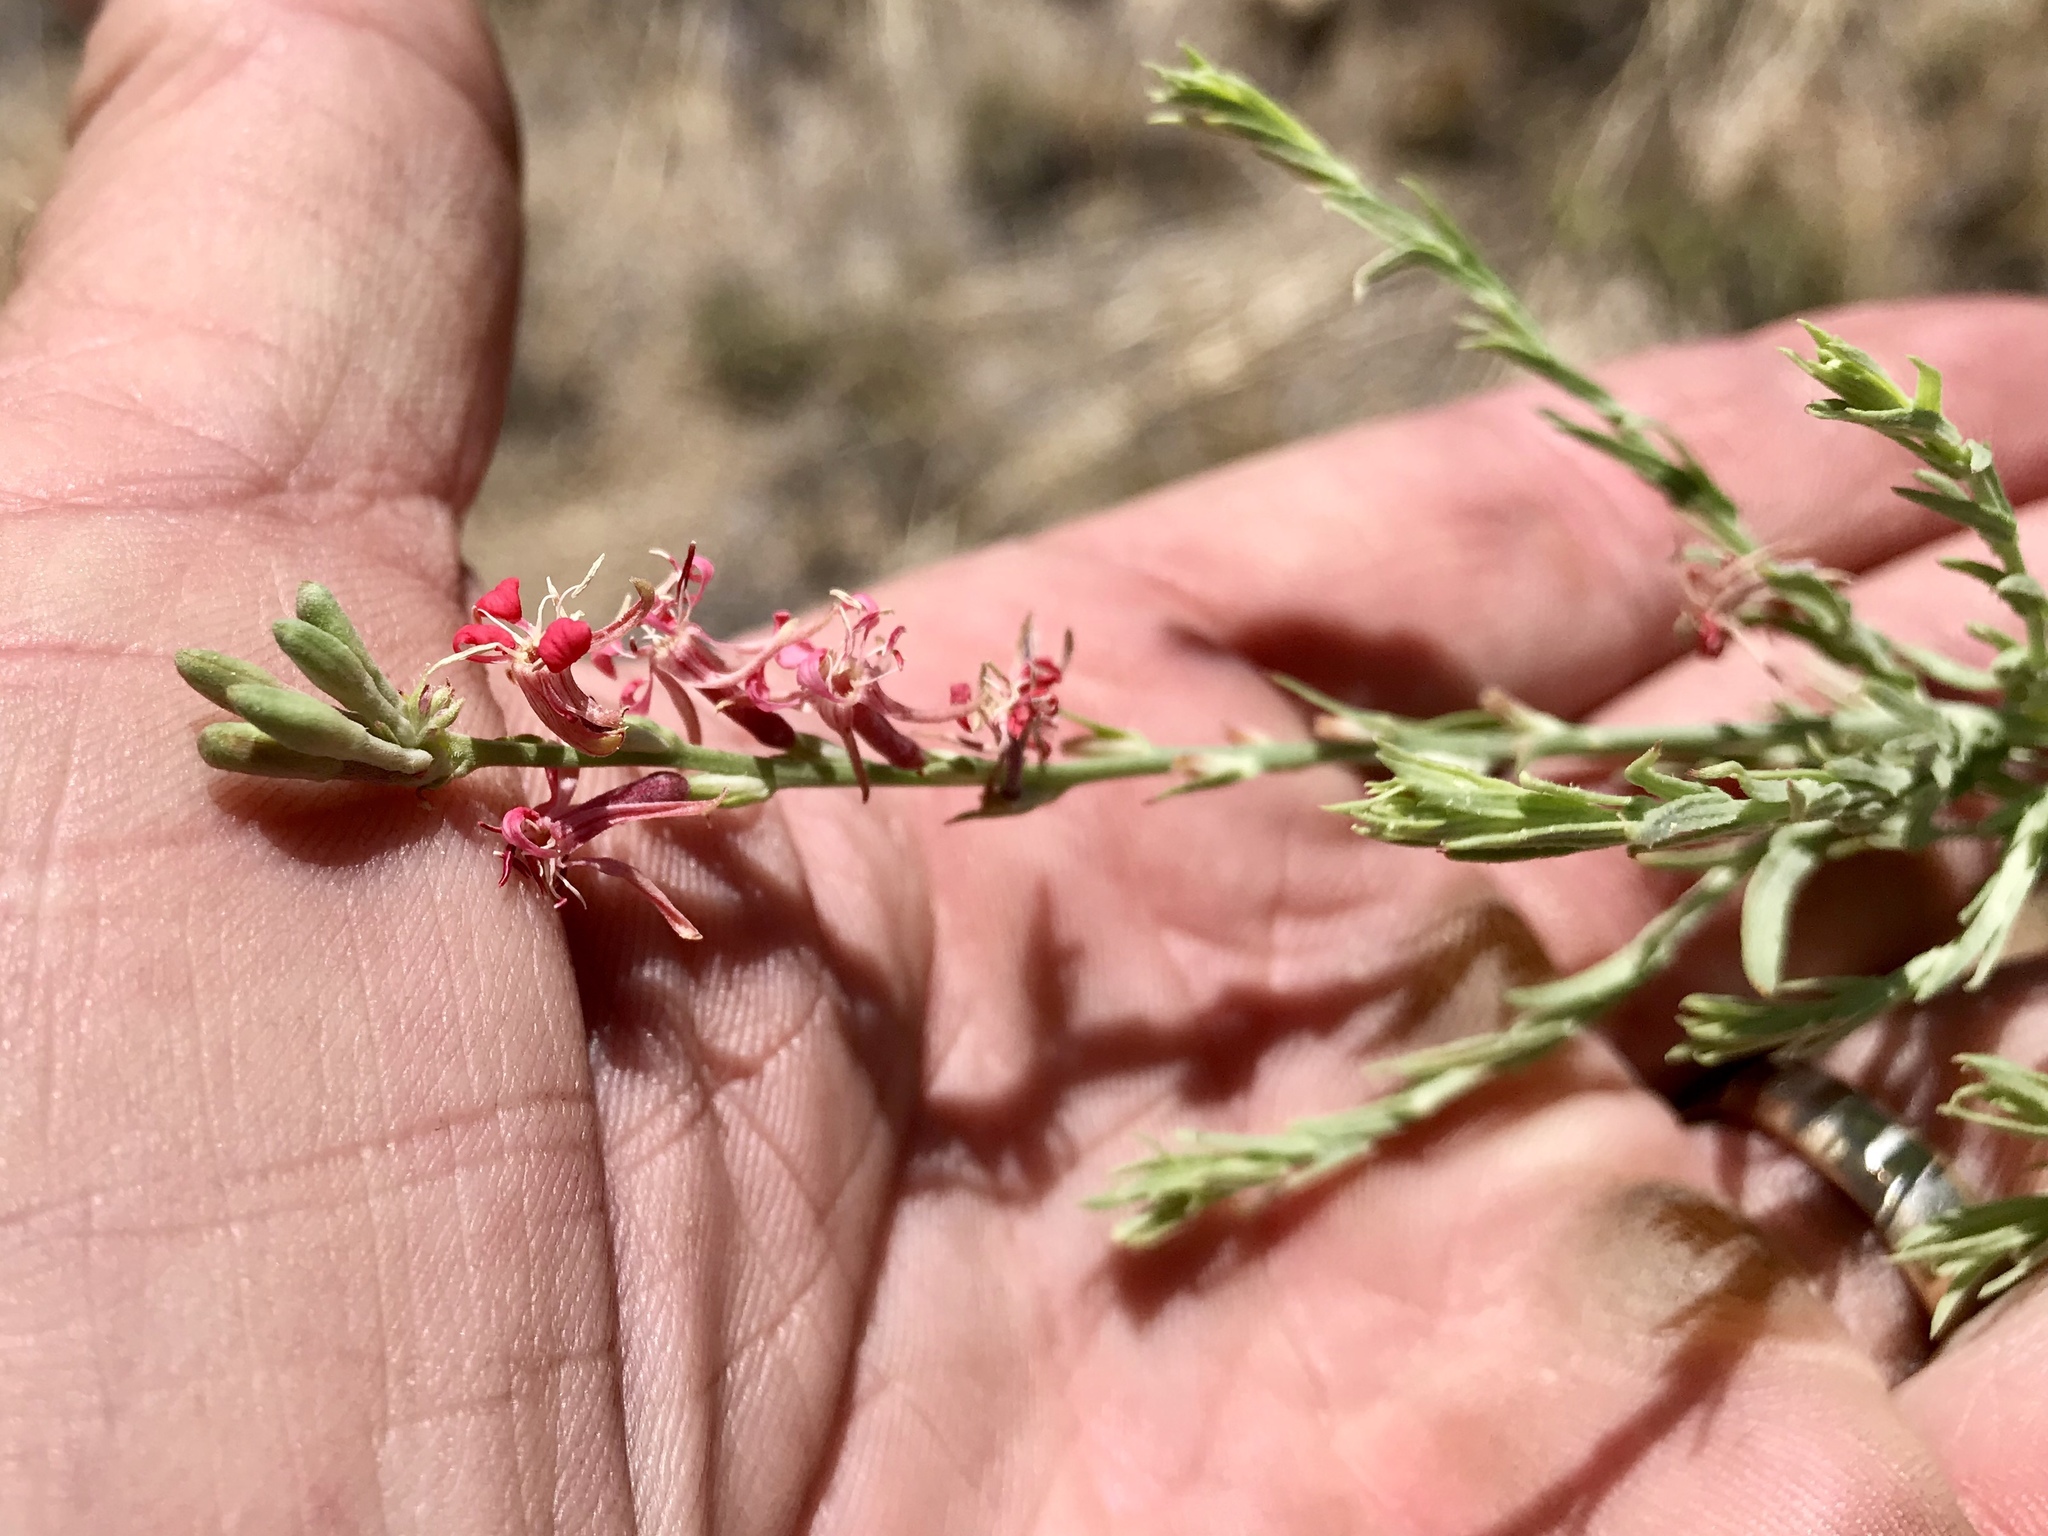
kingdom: Plantae
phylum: Tracheophyta
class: Magnoliopsida
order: Myrtales
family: Onagraceae
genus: Oenothera
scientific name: Oenothera suffrutescens
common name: Scarlet beeblossom
